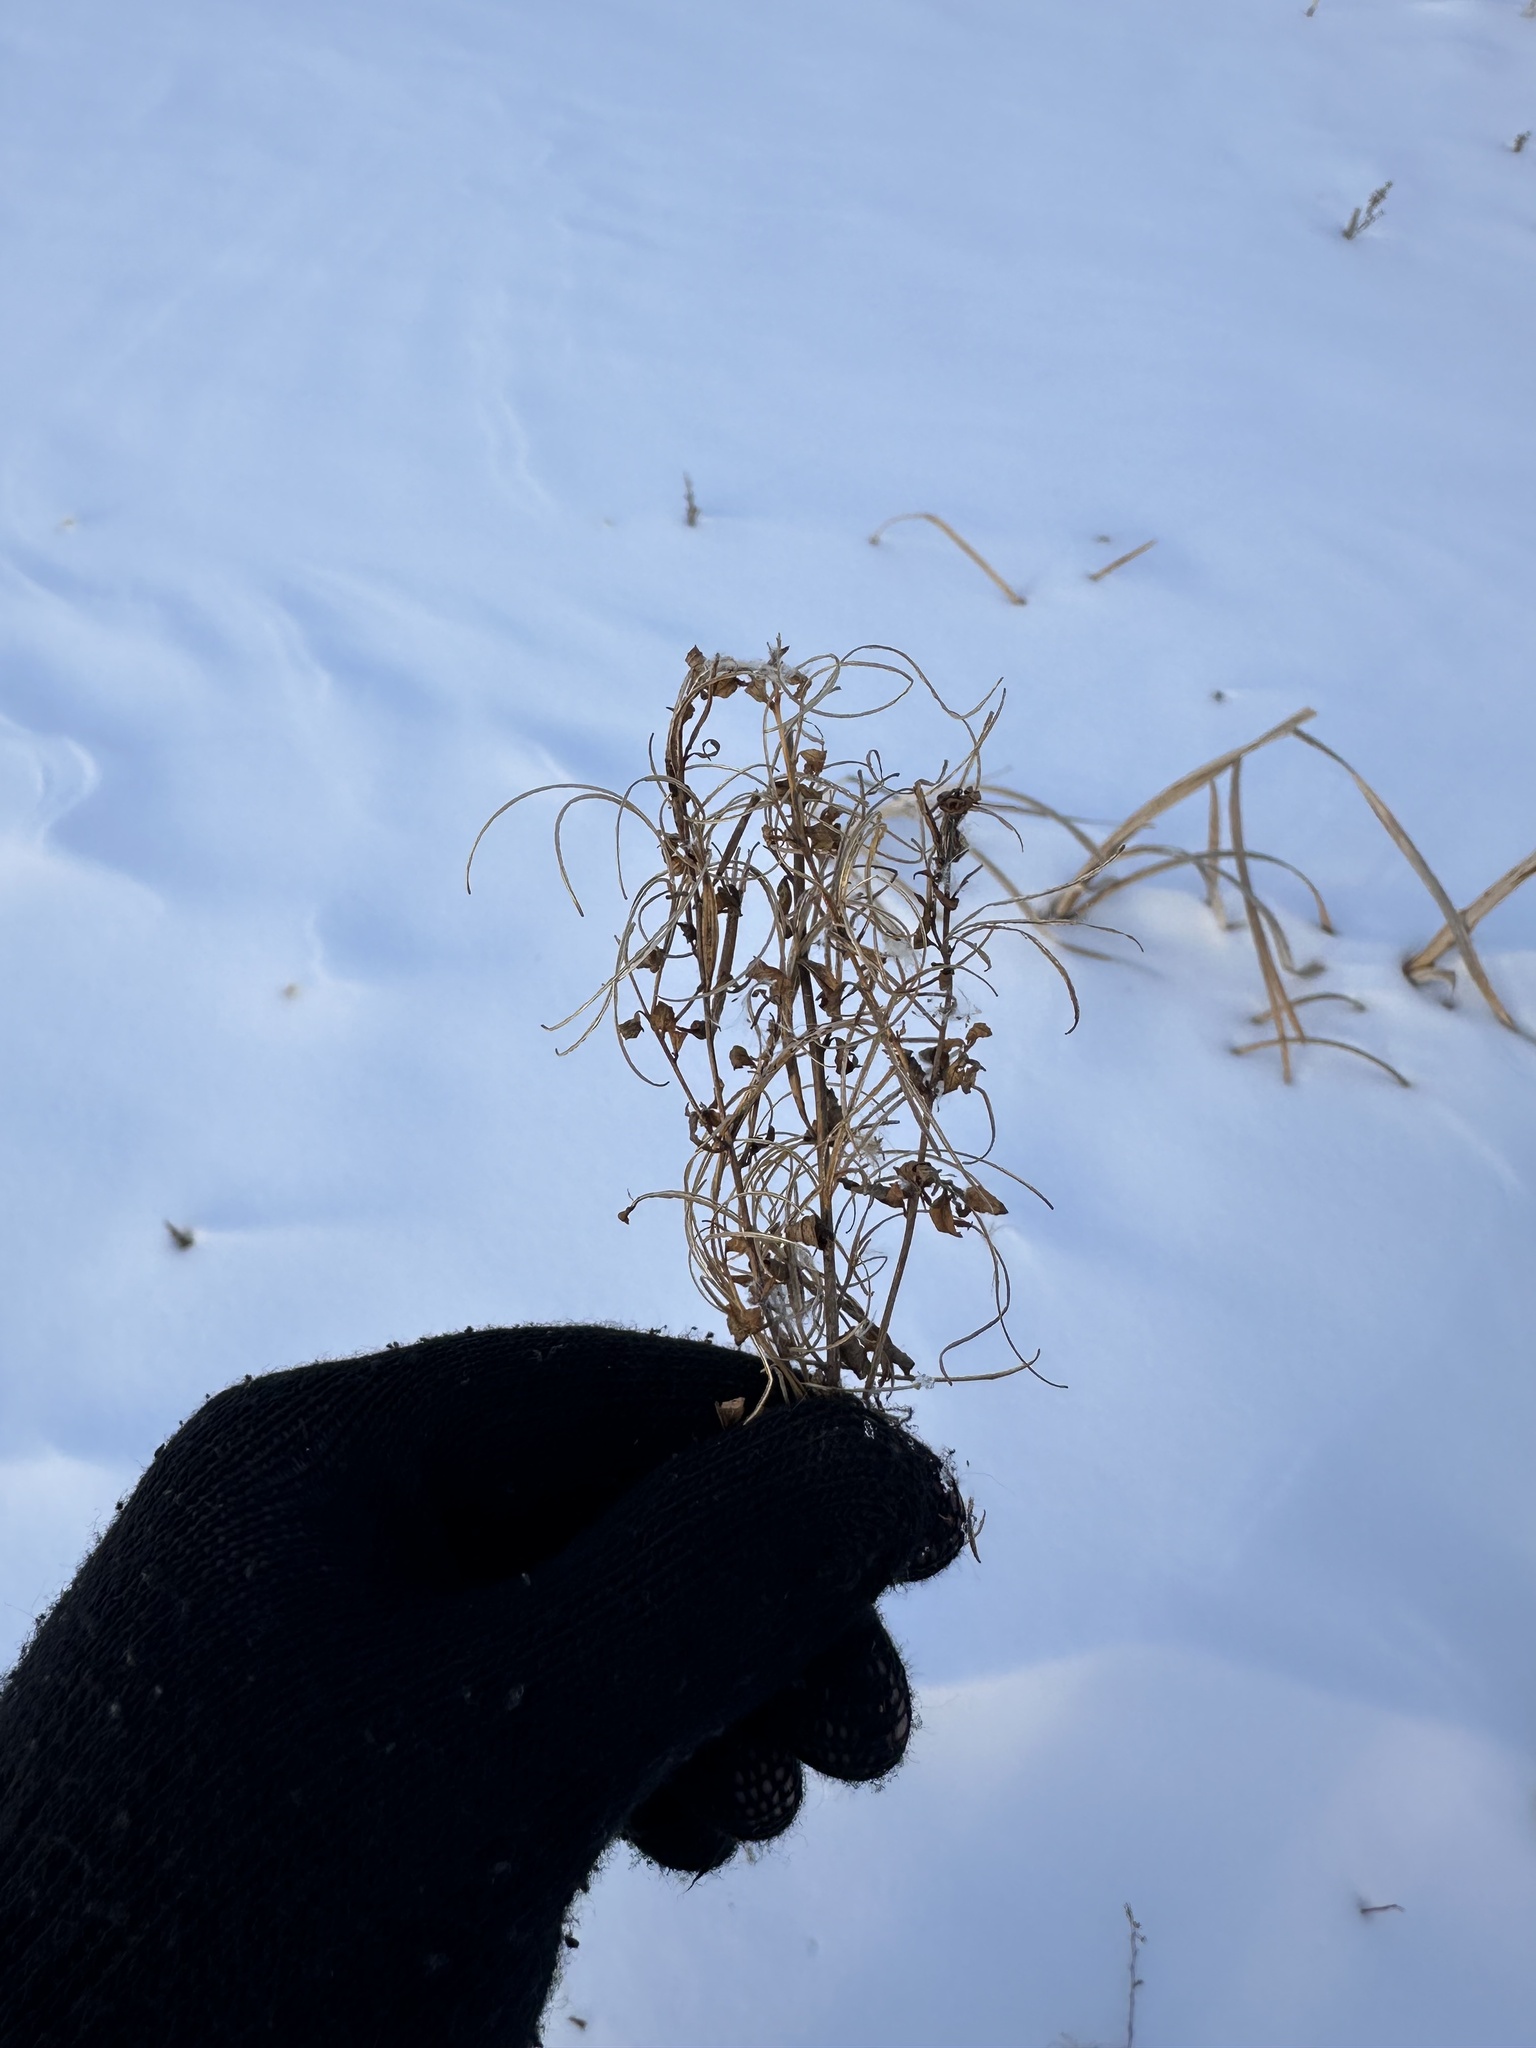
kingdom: Plantae
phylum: Tracheophyta
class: Magnoliopsida
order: Myrtales
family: Onagraceae
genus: Epilobium
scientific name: Epilobium ciliatum
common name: American willowherb
